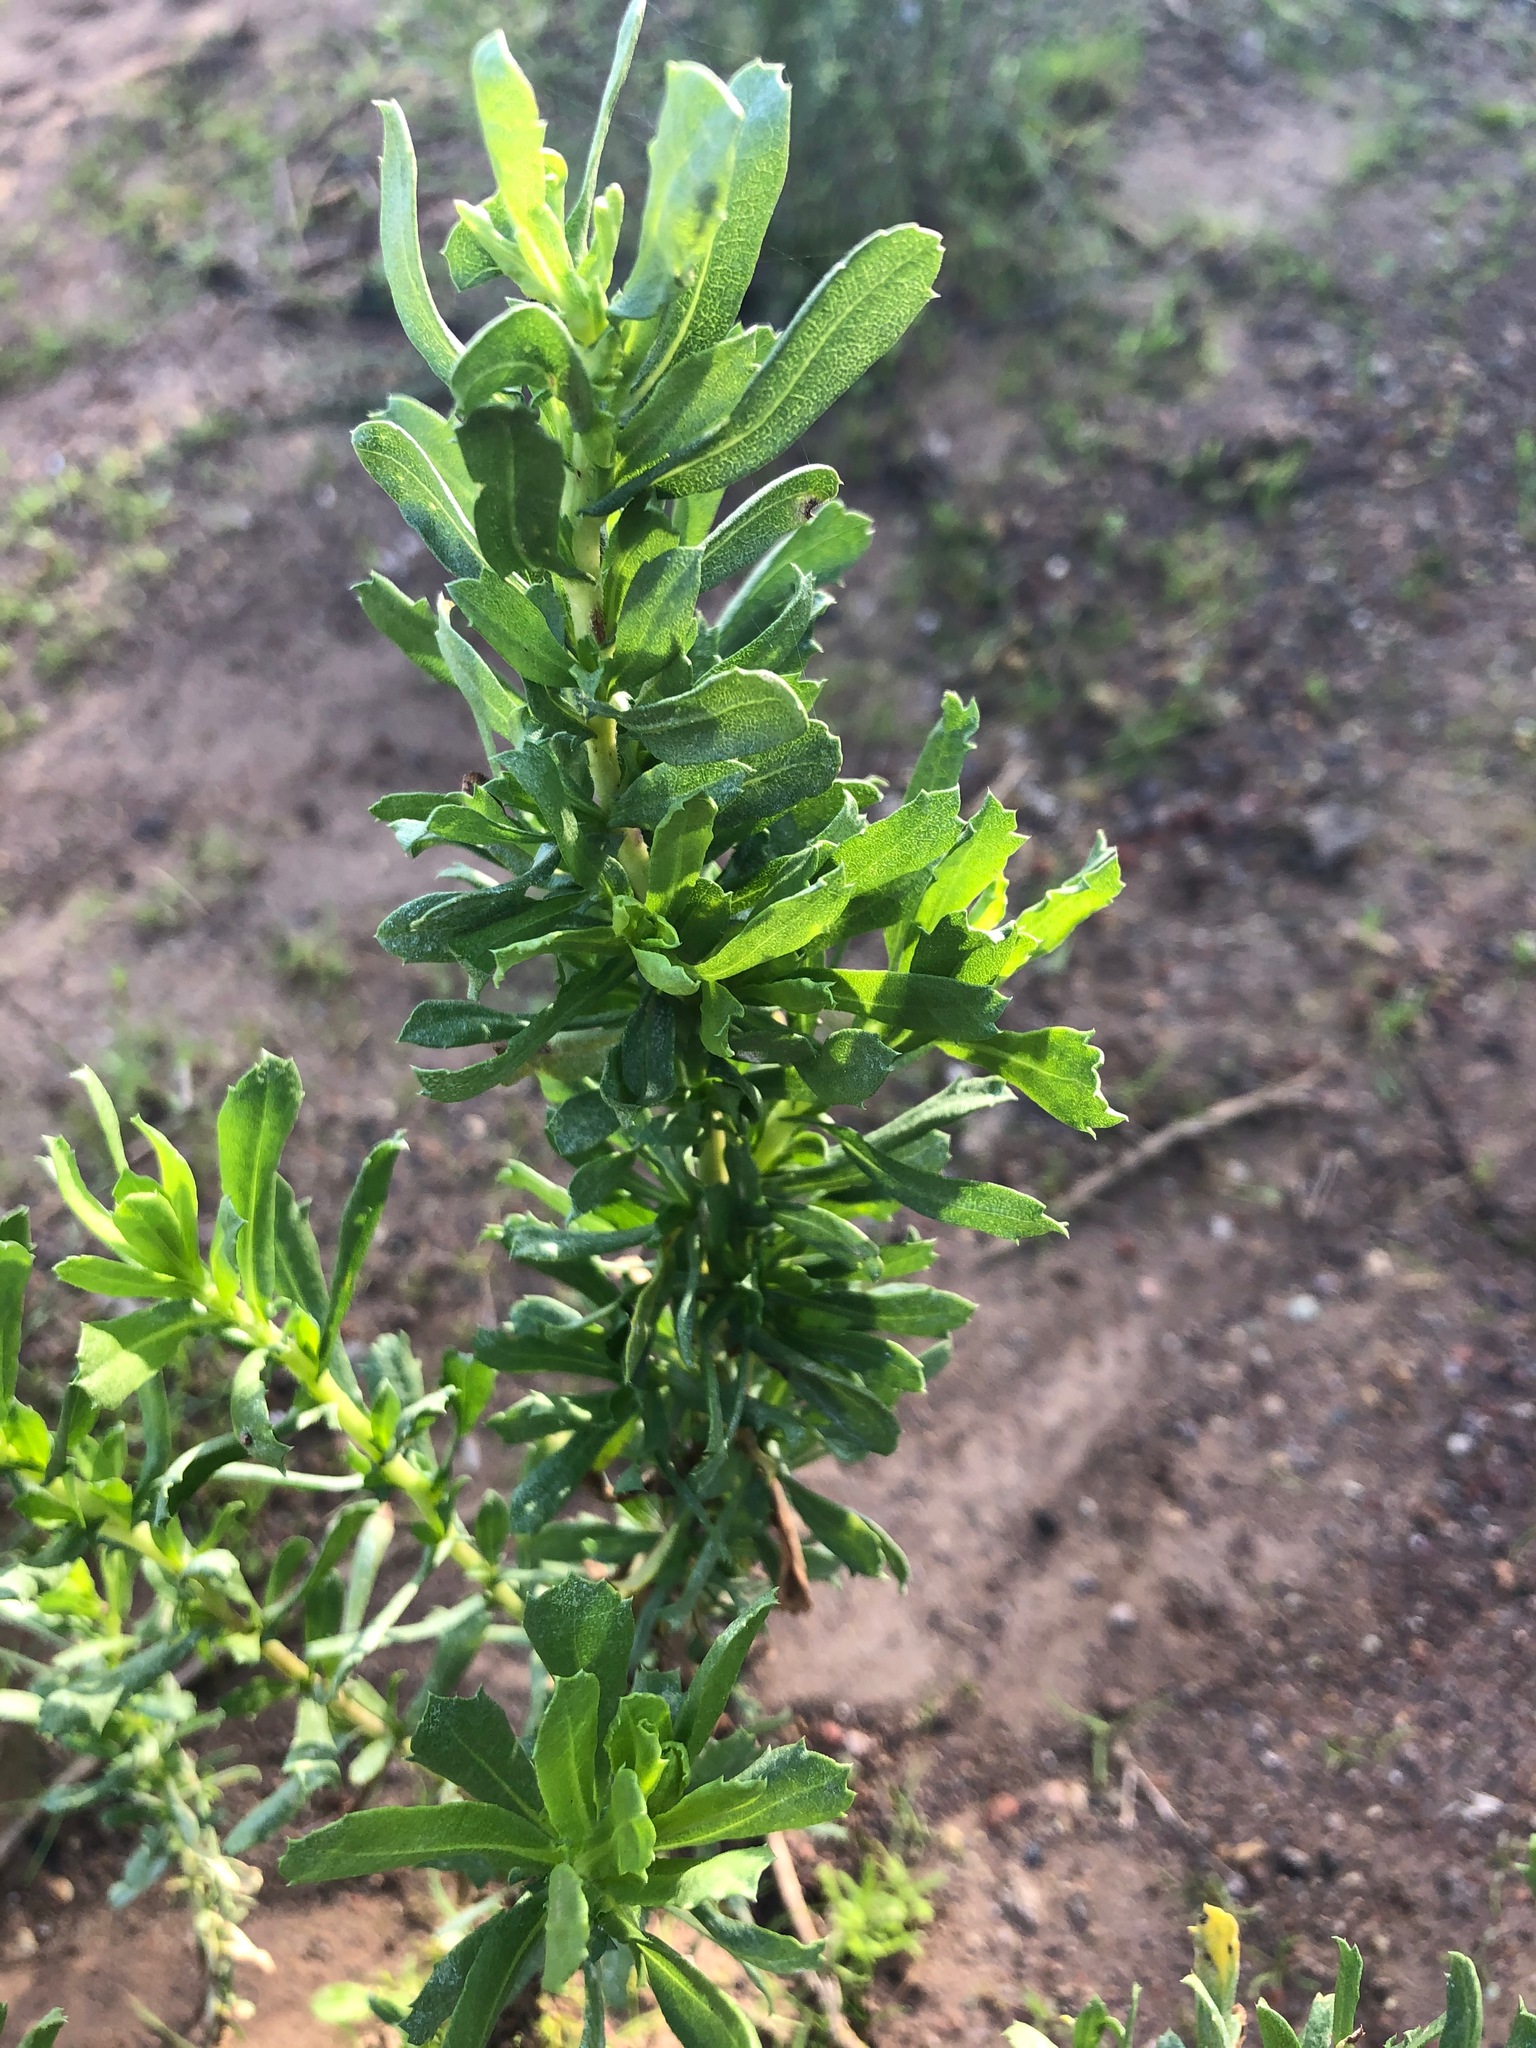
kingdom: Plantae
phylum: Tracheophyta
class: Magnoliopsida
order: Asterales
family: Asteraceae
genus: Isocoma
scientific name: Isocoma menziesii
